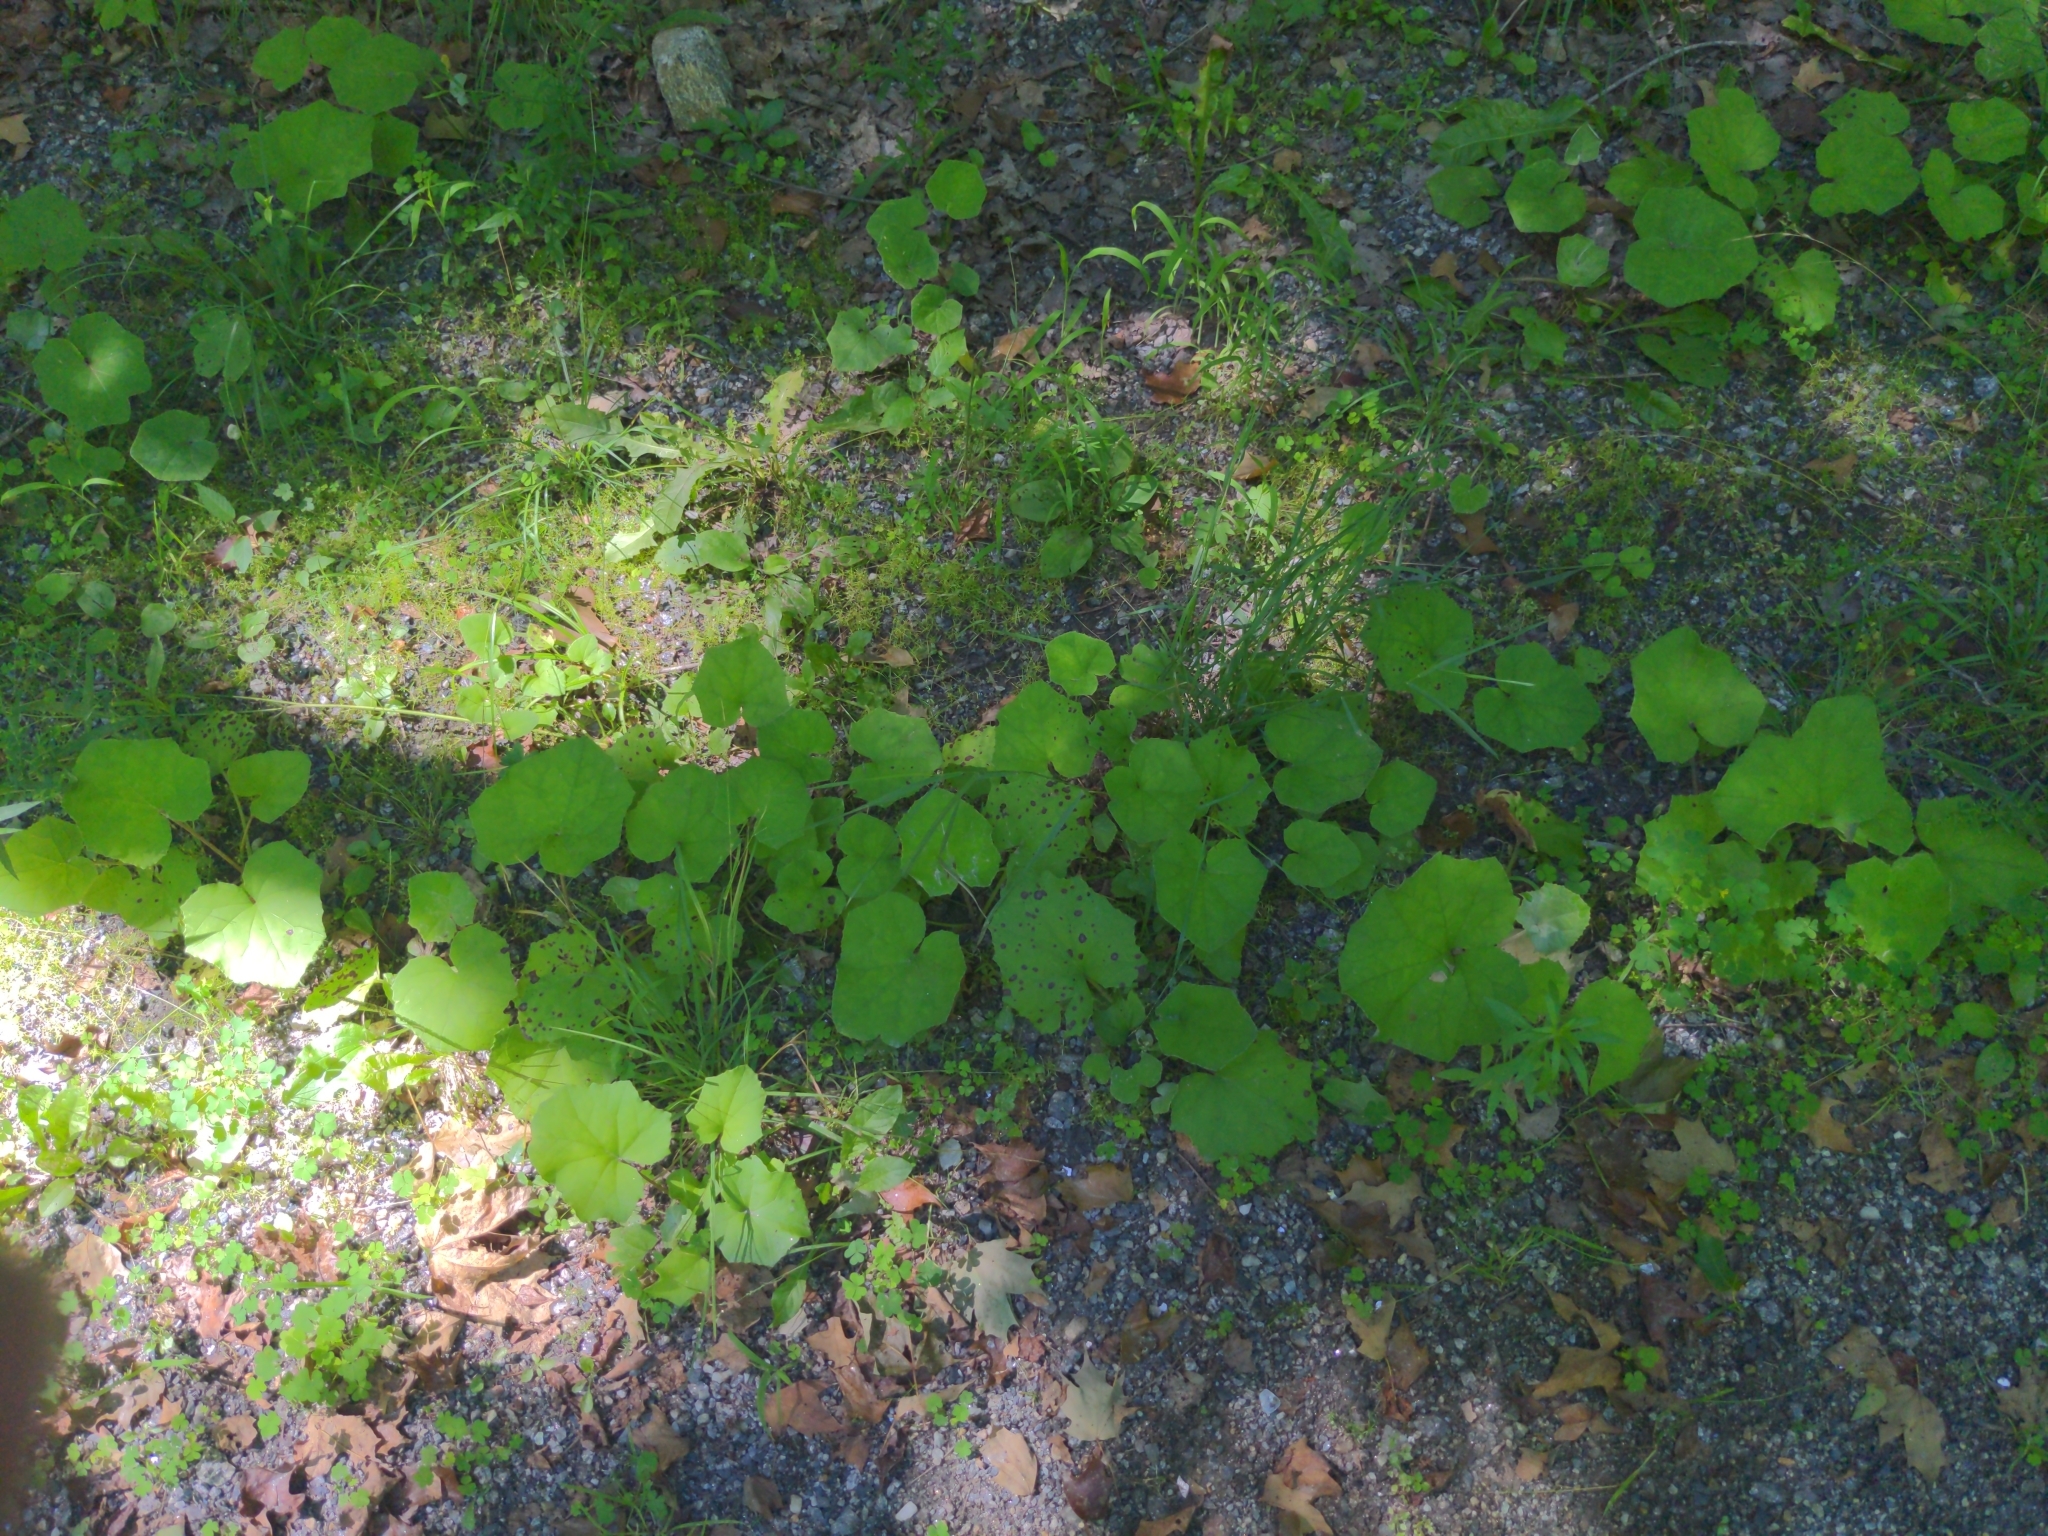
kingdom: Plantae
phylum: Tracheophyta
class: Magnoliopsida
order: Asterales
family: Asteraceae
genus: Tussilago
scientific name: Tussilago farfara
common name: Coltsfoot
